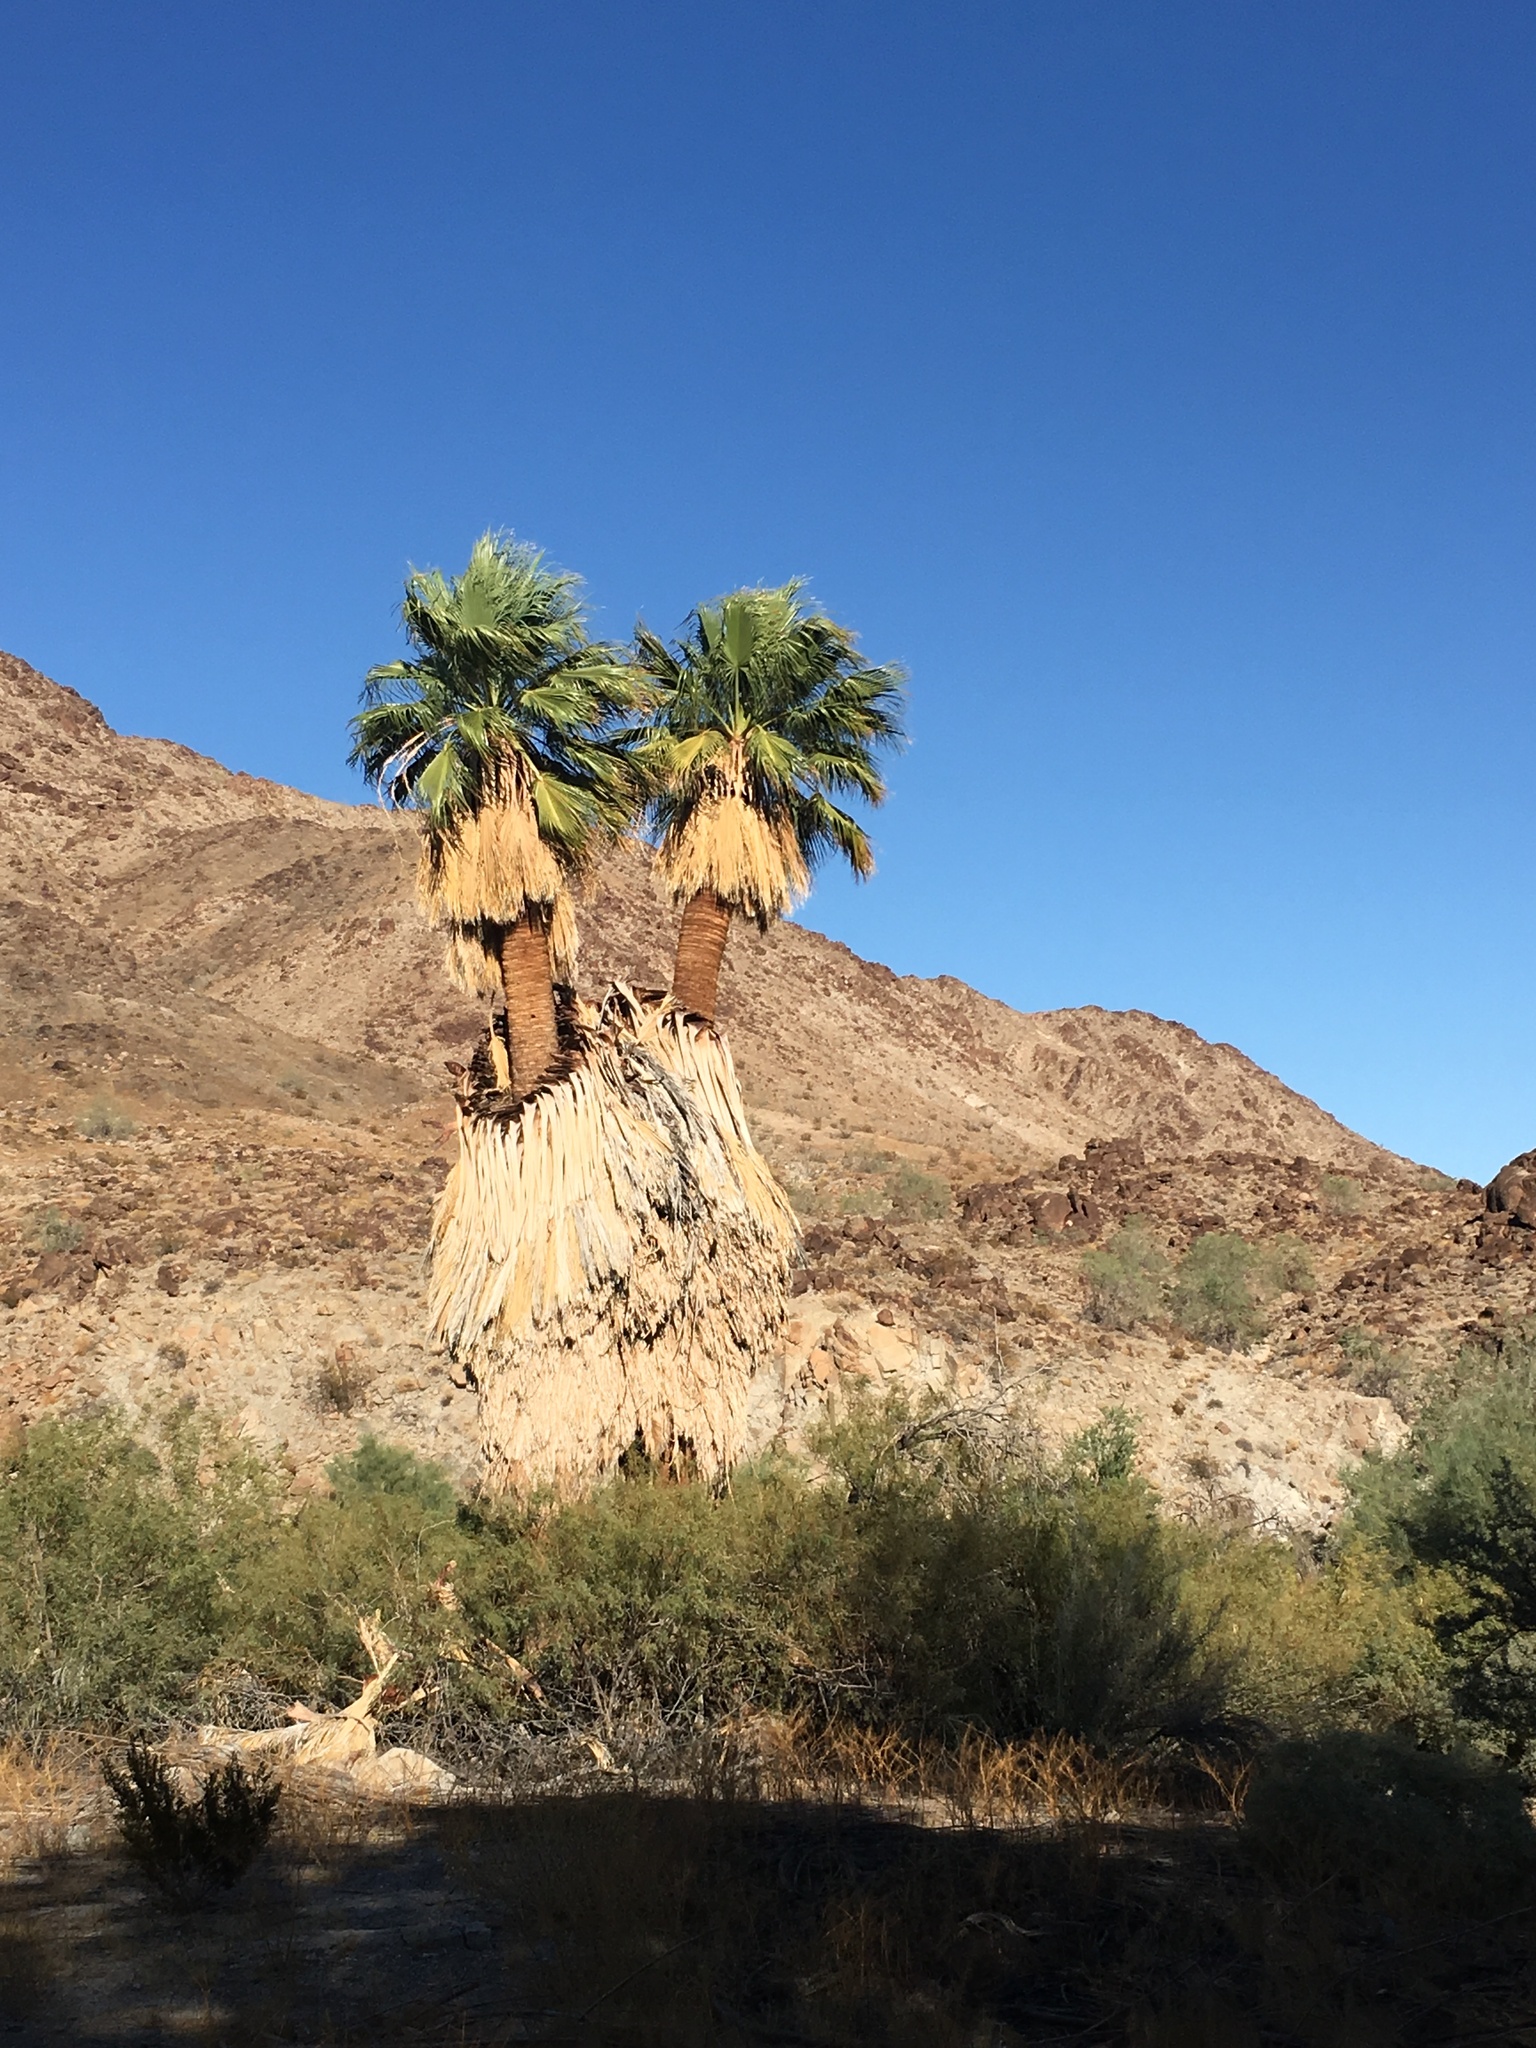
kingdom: Plantae
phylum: Tracheophyta
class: Liliopsida
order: Arecales
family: Arecaceae
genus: Washingtonia
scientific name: Washingtonia filifera
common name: California fan palm
